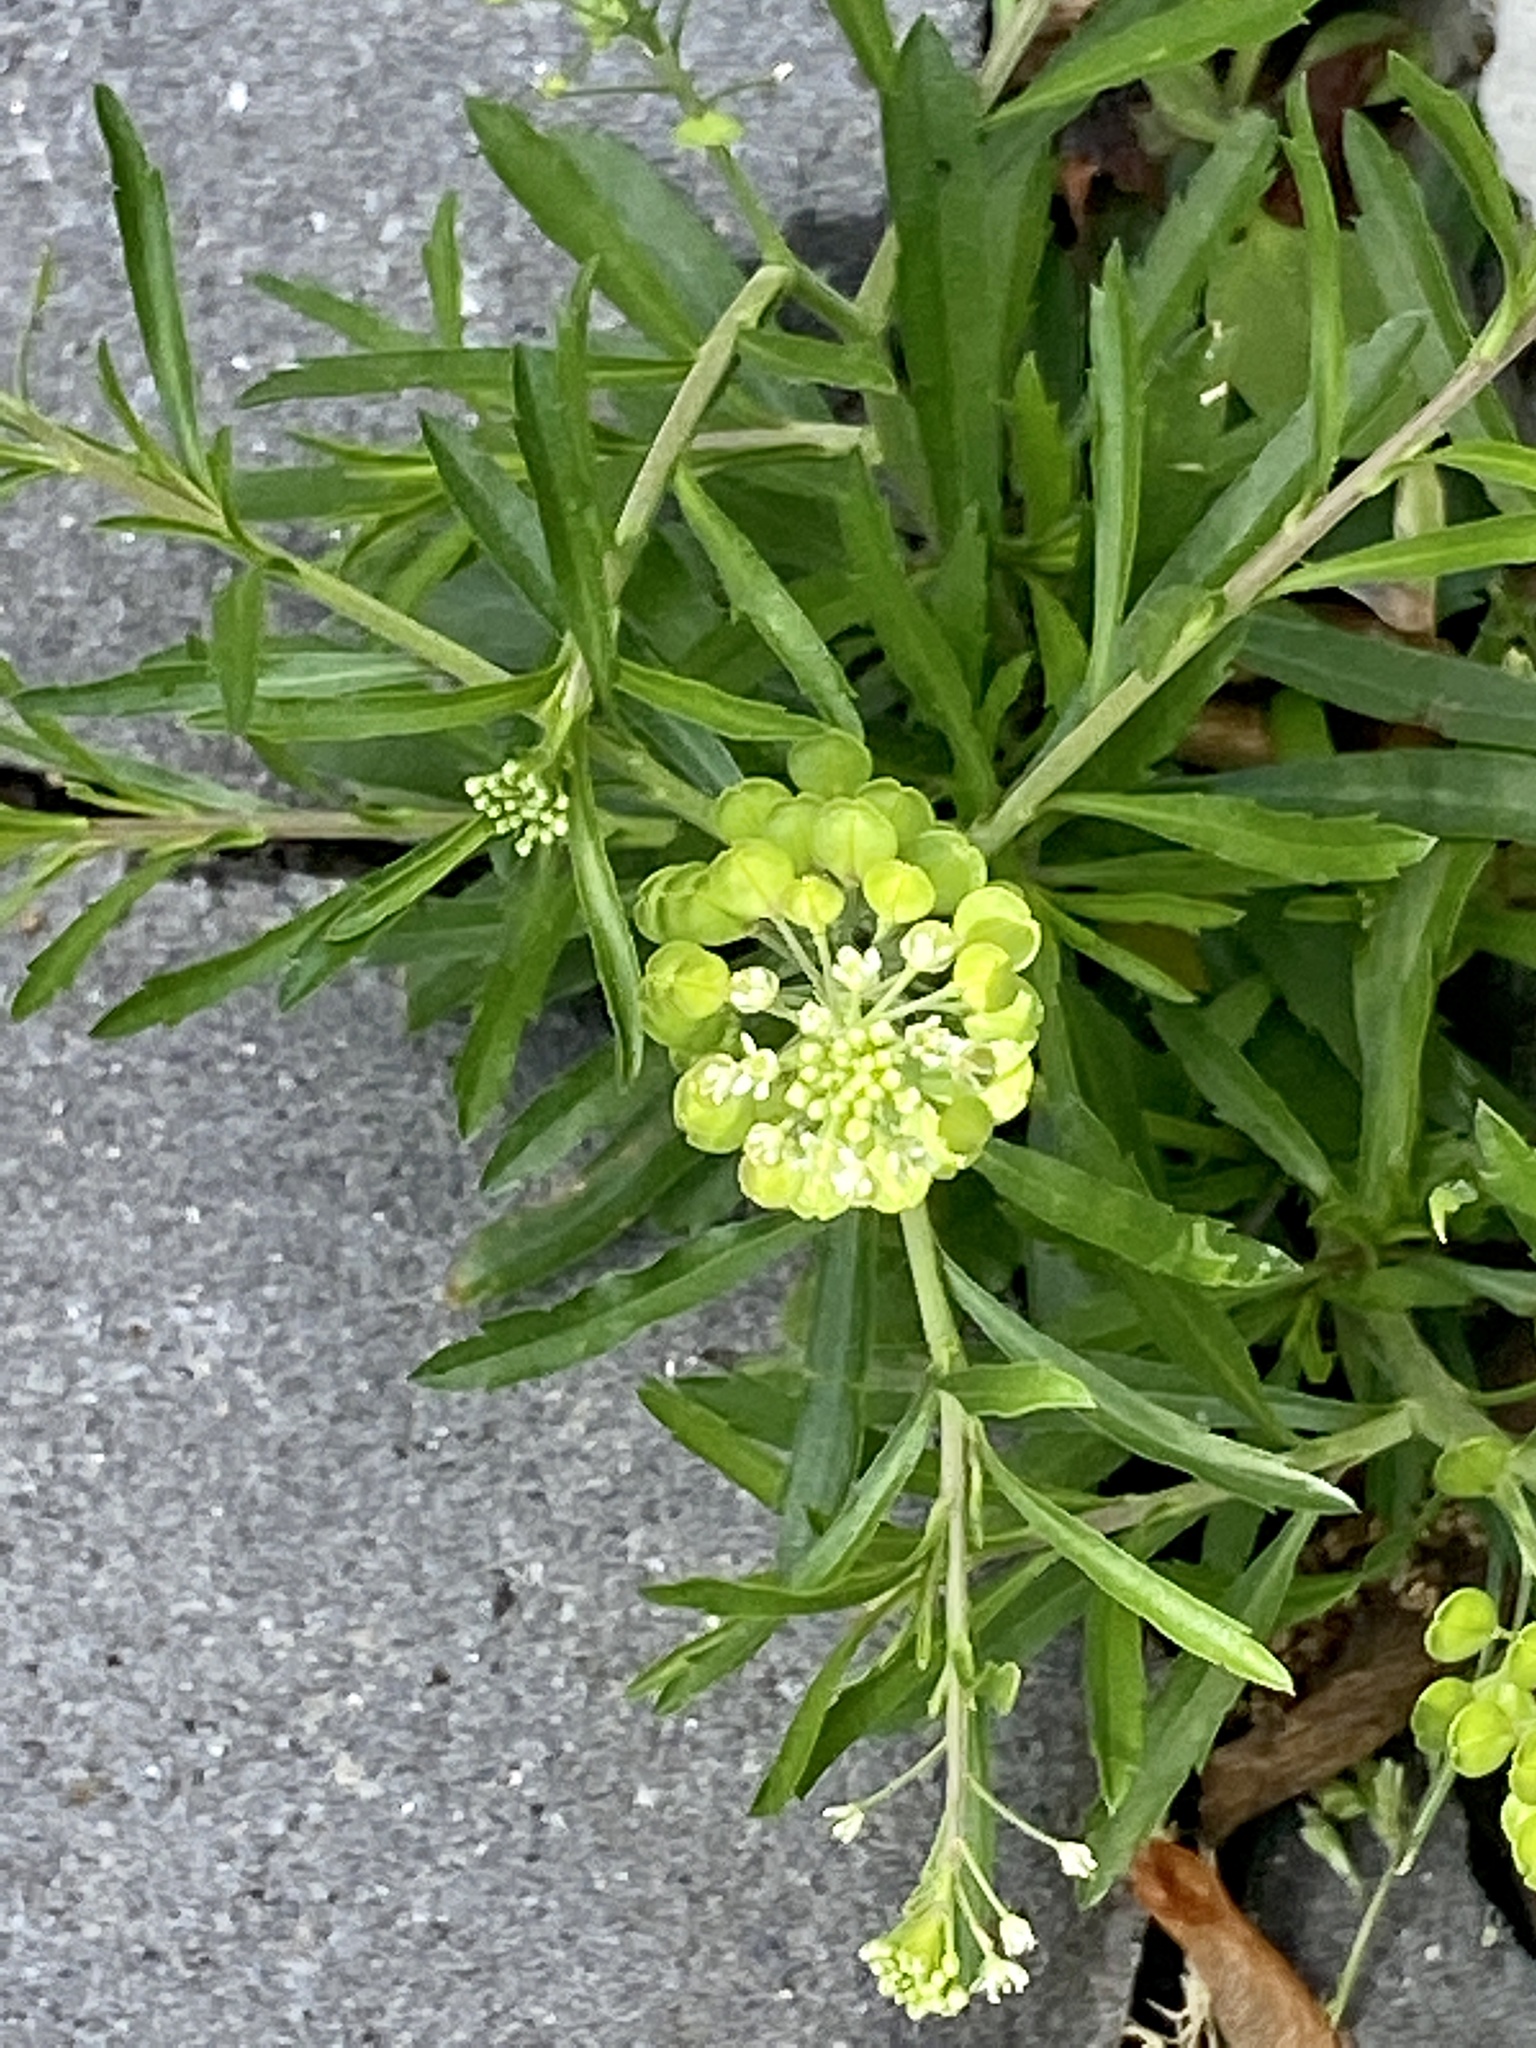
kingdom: Plantae
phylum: Tracheophyta
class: Magnoliopsida
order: Brassicales
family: Brassicaceae
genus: Lepidium
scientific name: Lepidium virginicum
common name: Least pepperwort
